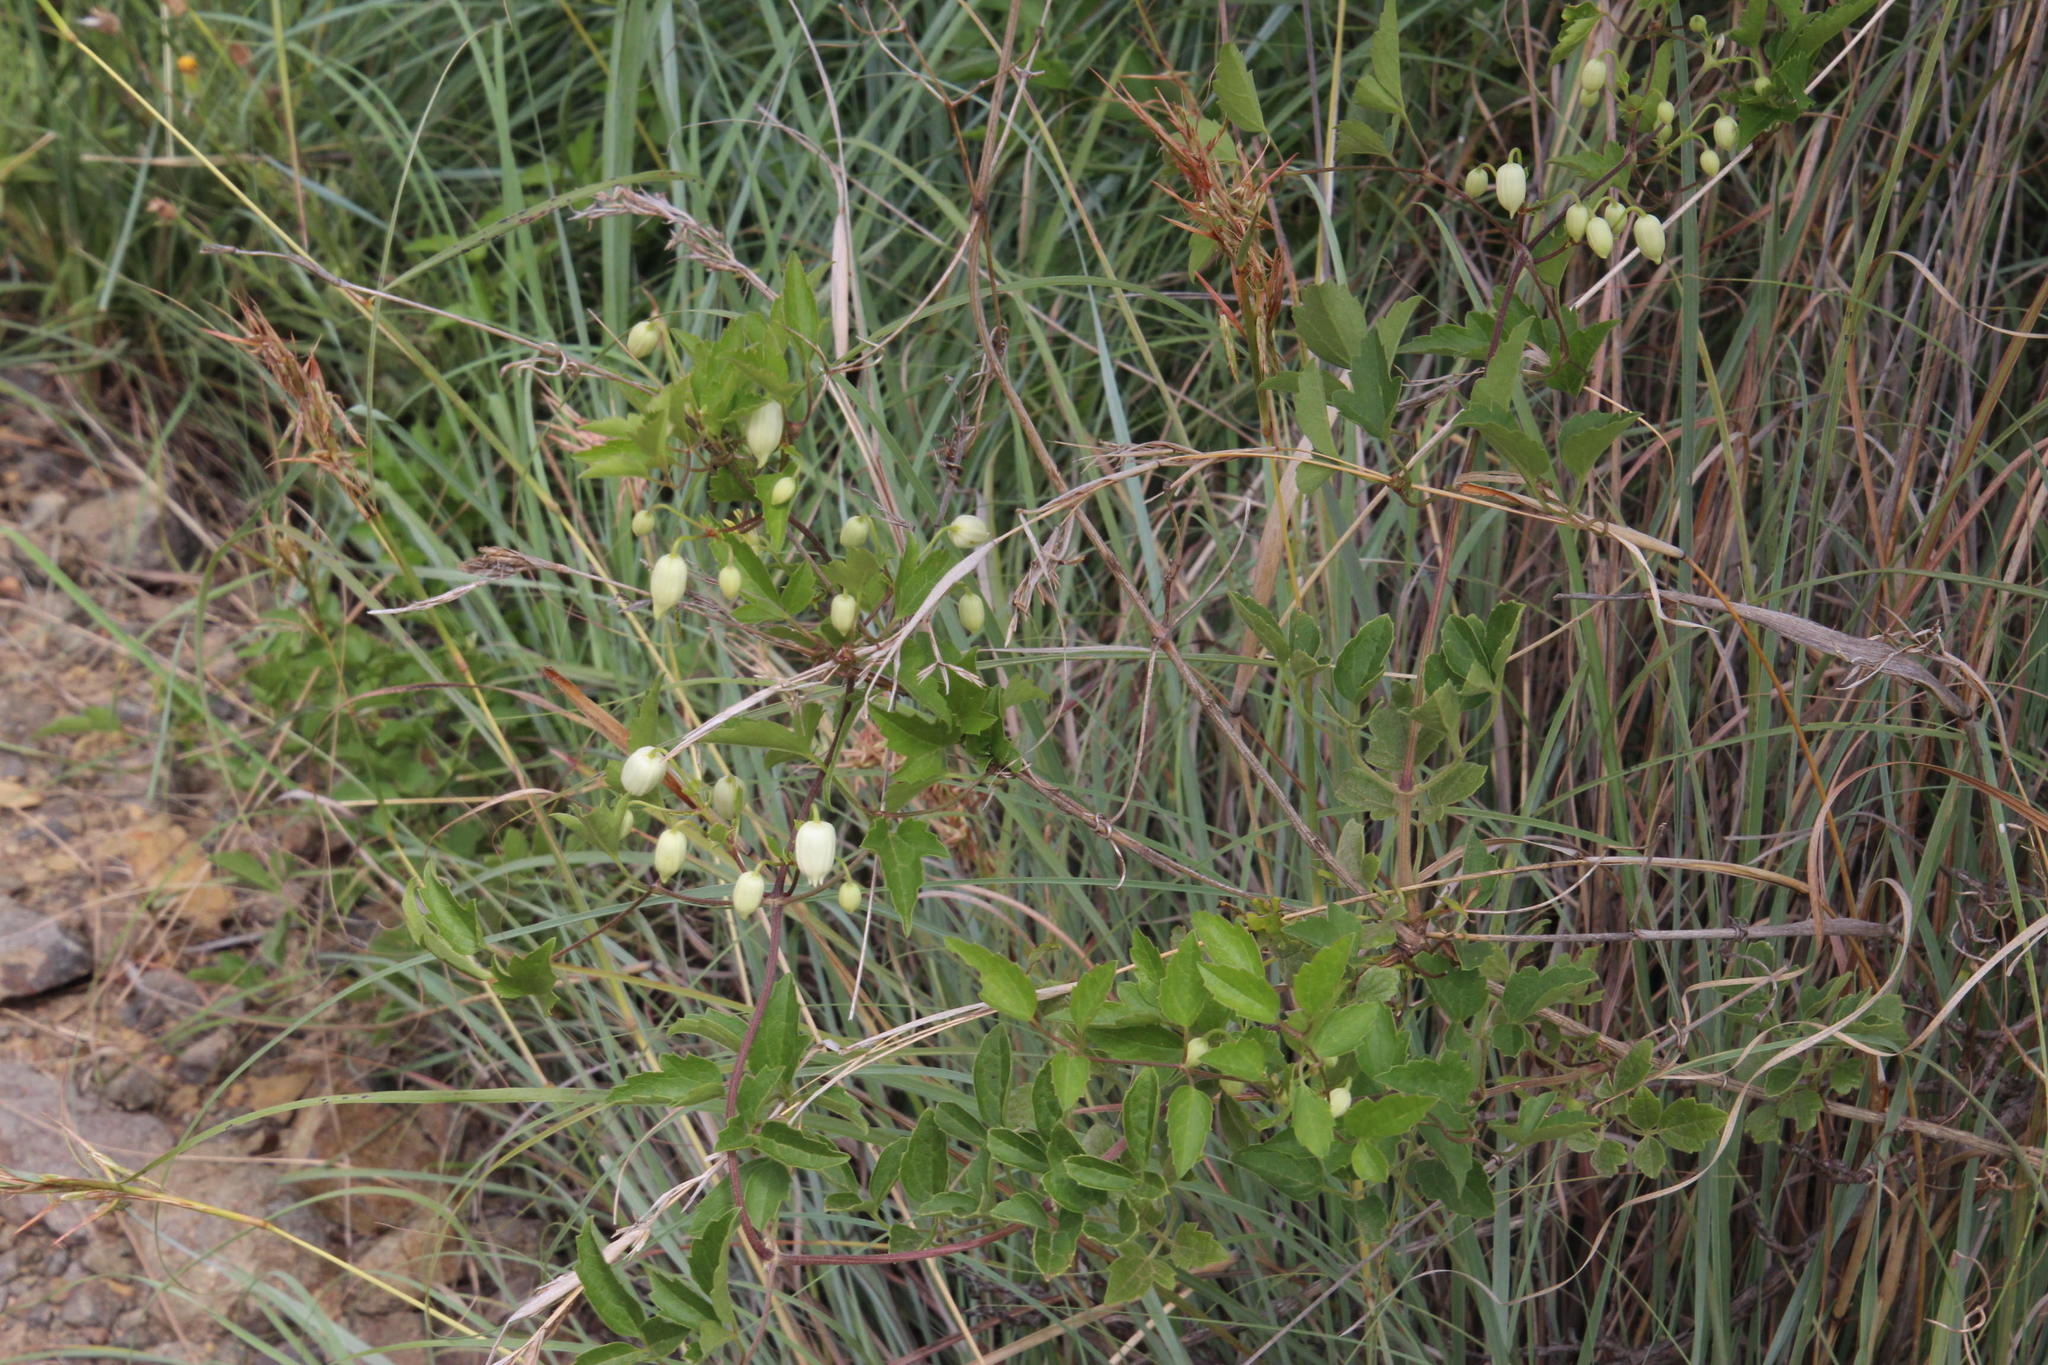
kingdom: Plantae
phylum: Tracheophyta
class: Magnoliopsida
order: Ranunculales
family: Ranunculaceae
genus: Clematis
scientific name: Clematis brachiata
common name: Traveler's-joy
